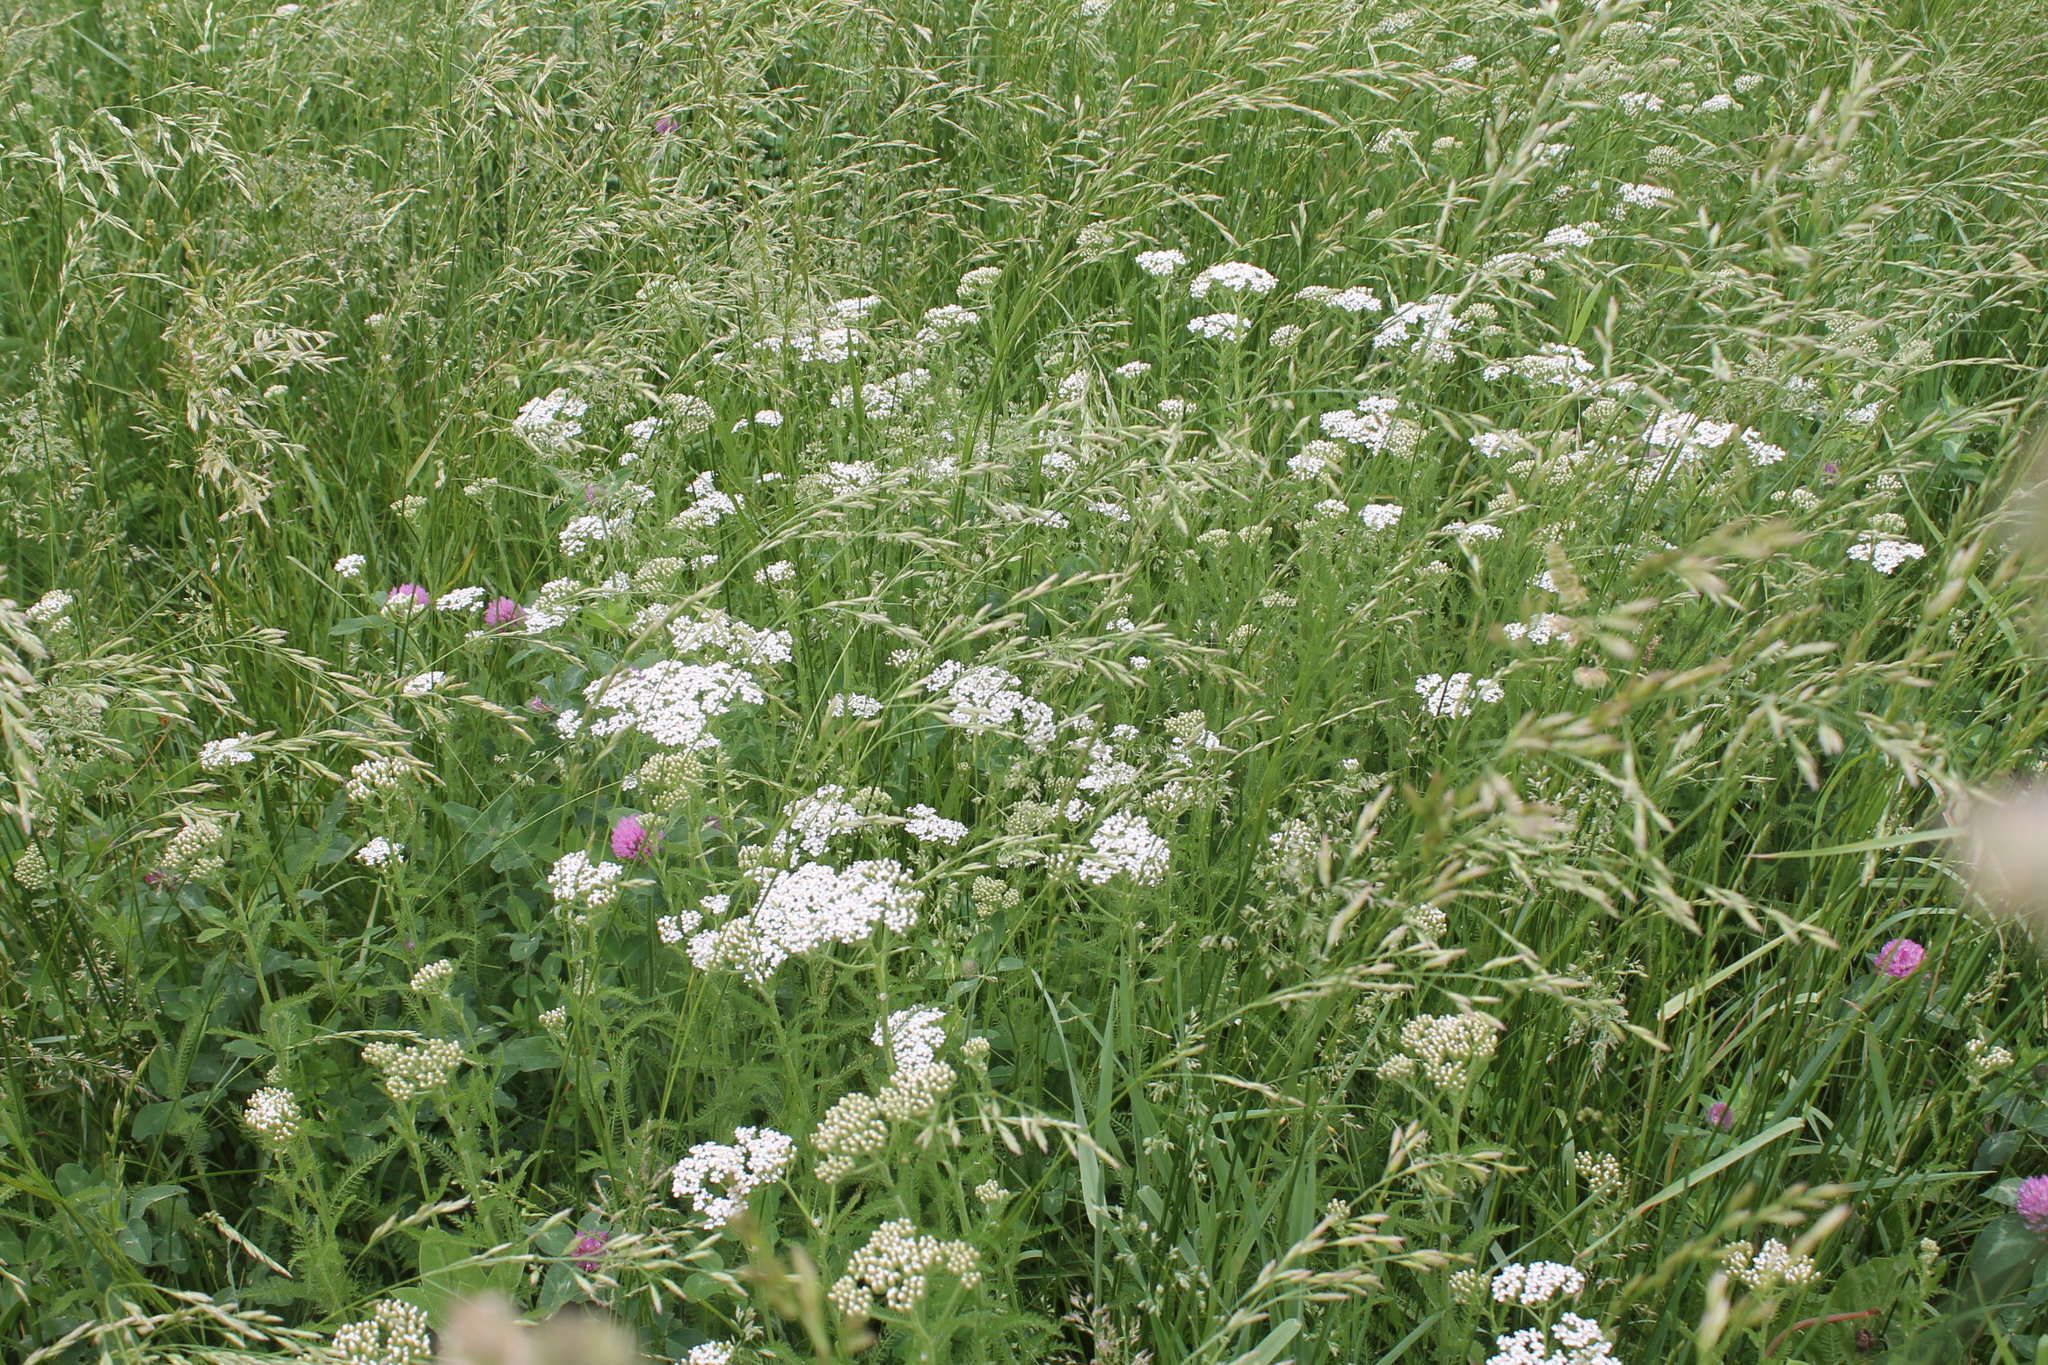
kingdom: Plantae
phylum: Tracheophyta
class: Magnoliopsida
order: Asterales
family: Asteraceae
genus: Achillea
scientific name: Achillea millefolium
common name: Yarrow
